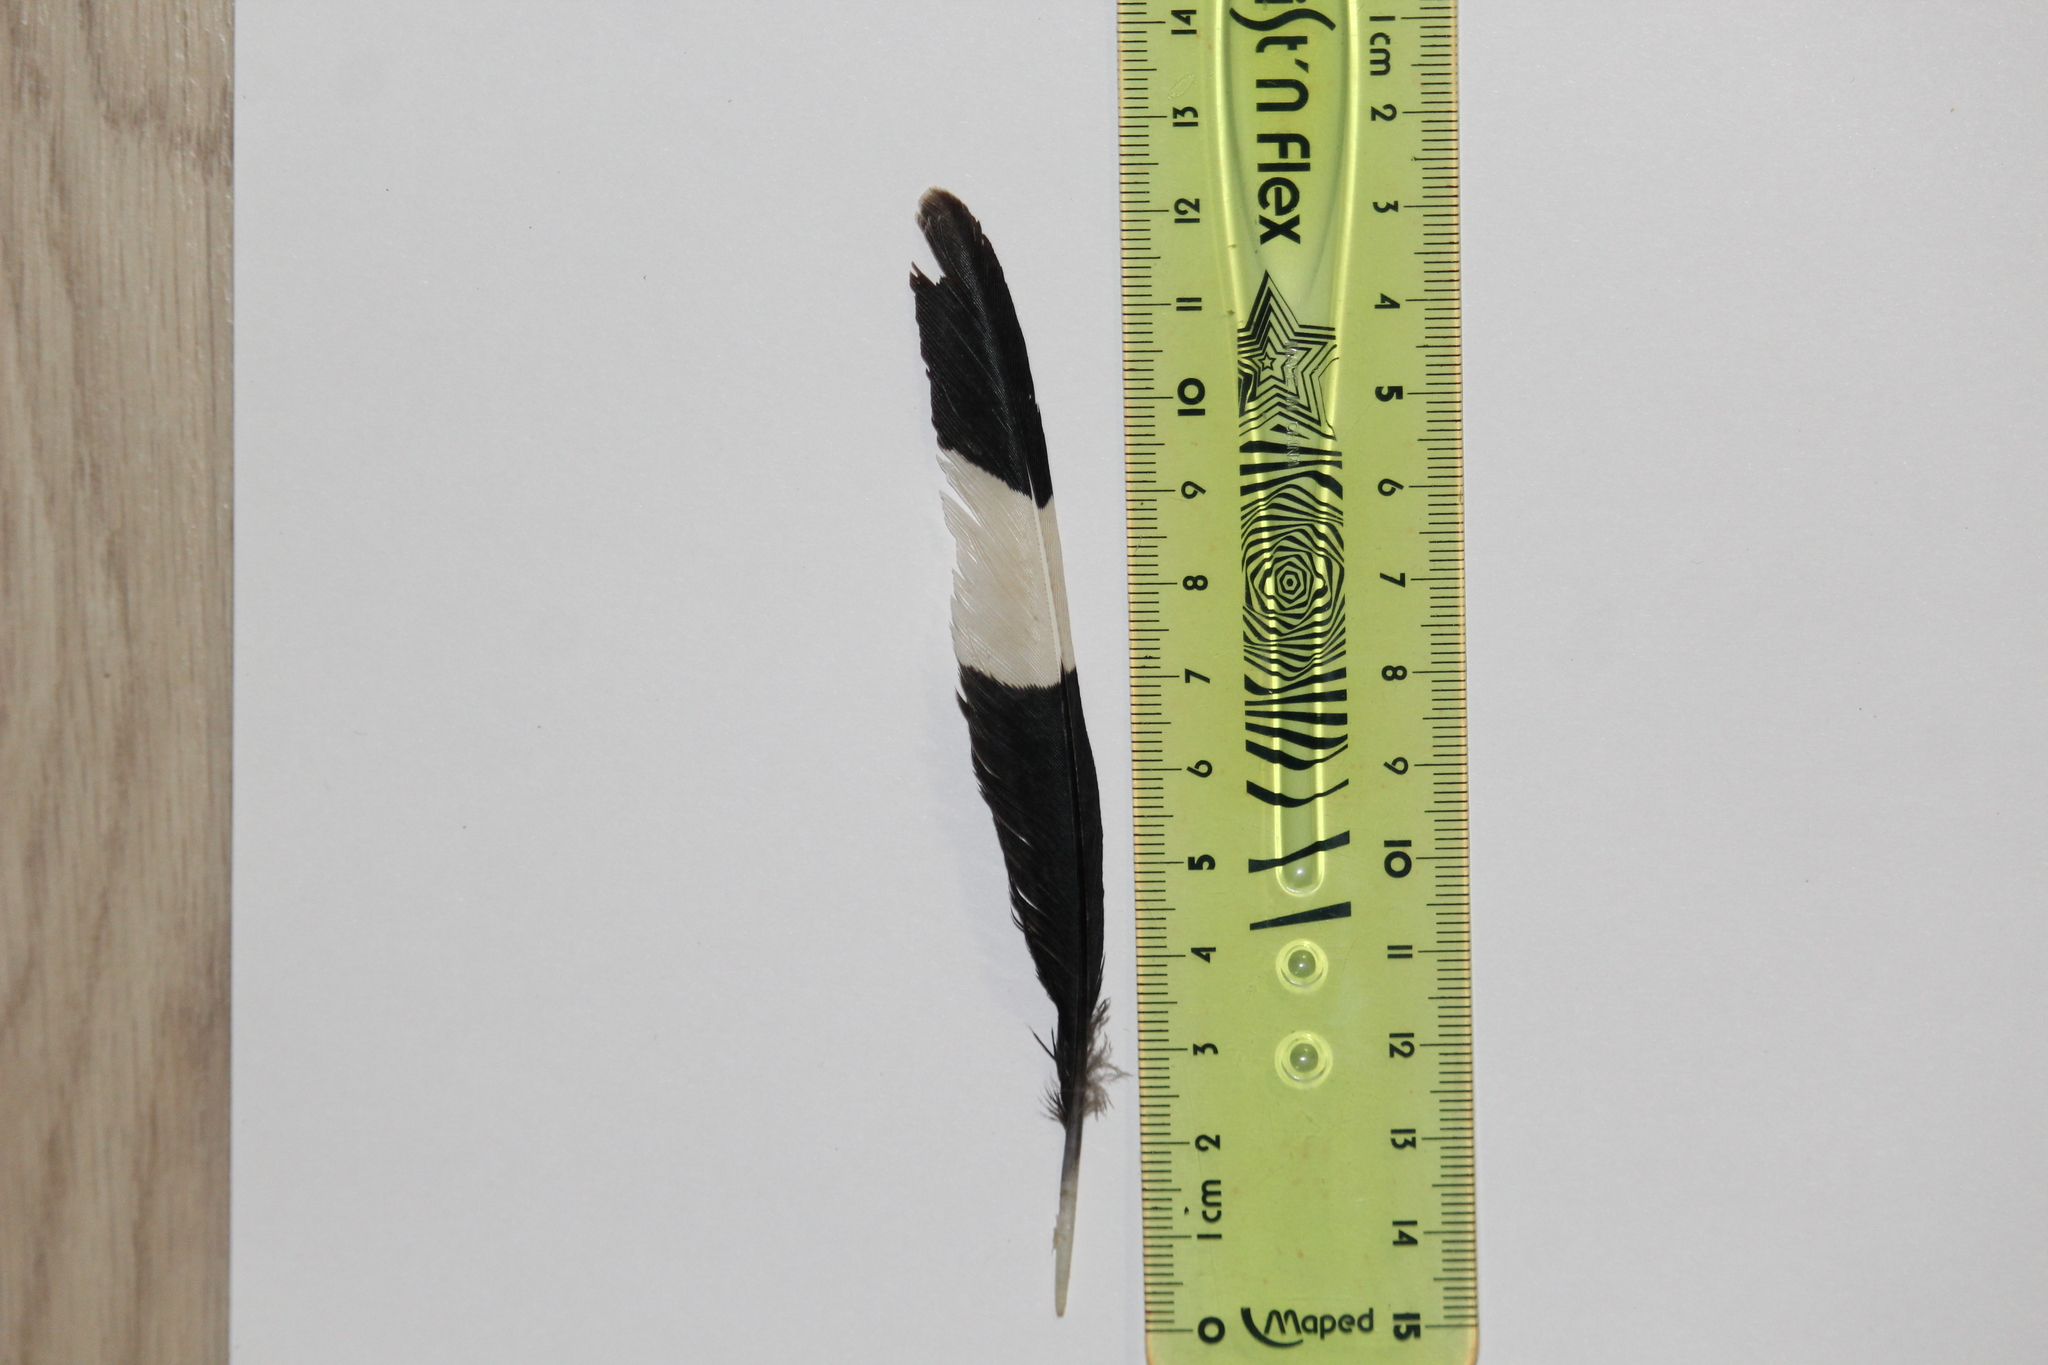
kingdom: Animalia
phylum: Chordata
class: Aves
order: Bucerotiformes
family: Upupidae
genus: Upupa
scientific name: Upupa epops
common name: Eurasian hoopoe
